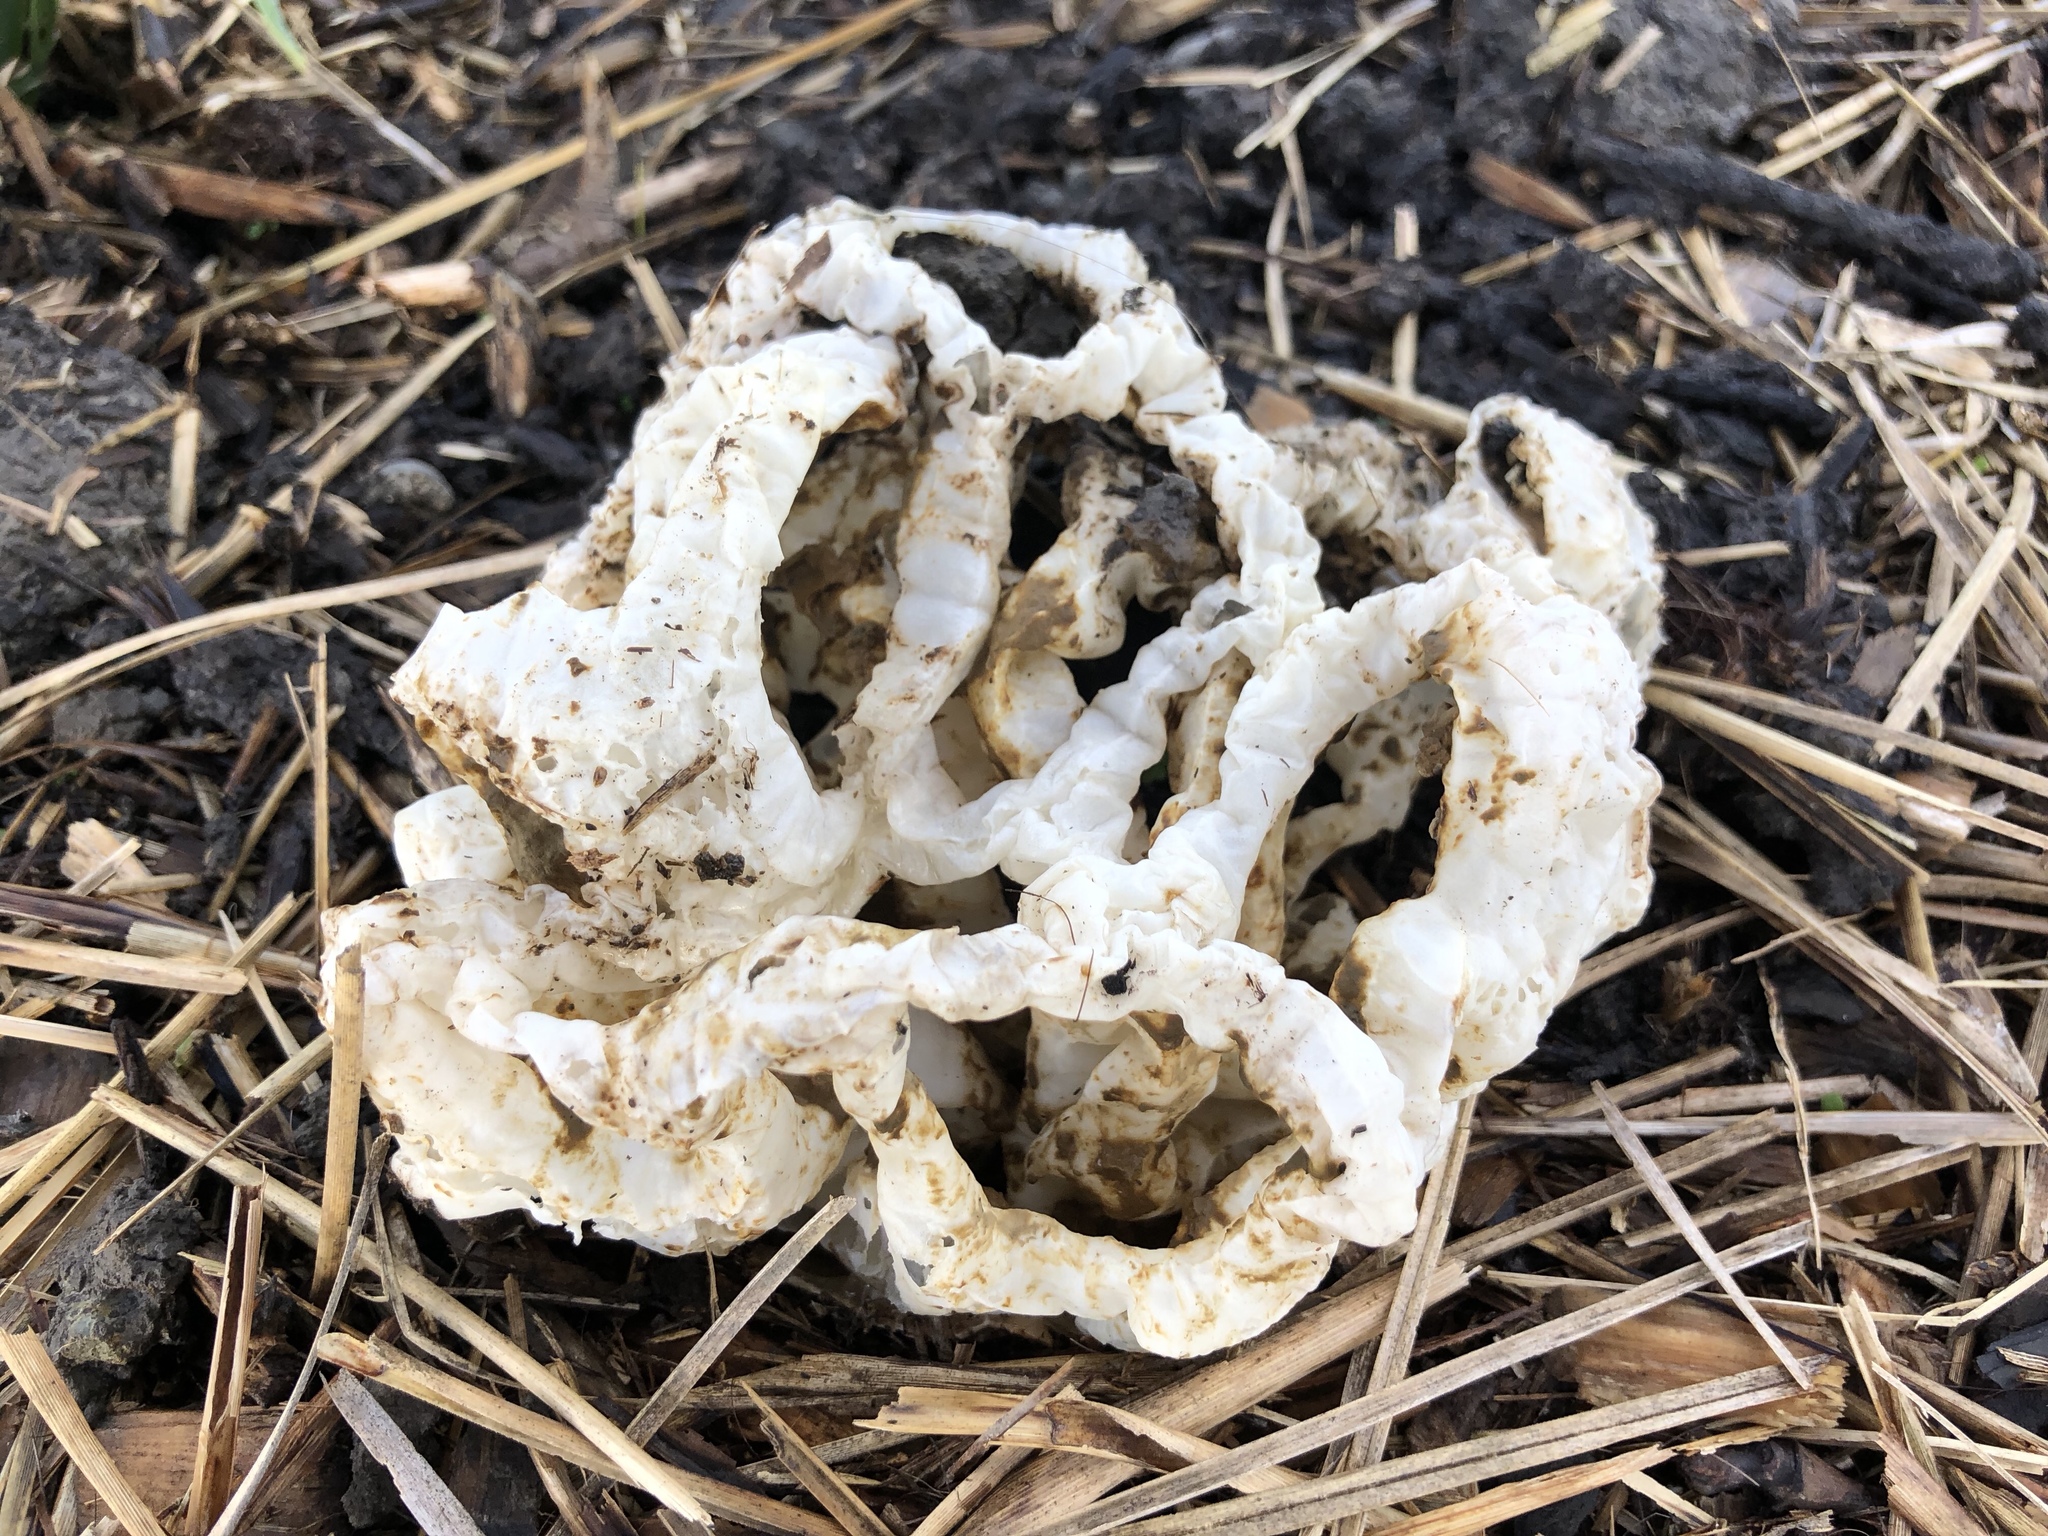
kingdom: Fungi
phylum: Basidiomycota
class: Agaricomycetes
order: Phallales
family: Phallaceae
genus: Ileodictyon
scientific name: Ileodictyon cibarium
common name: Basket fungus
